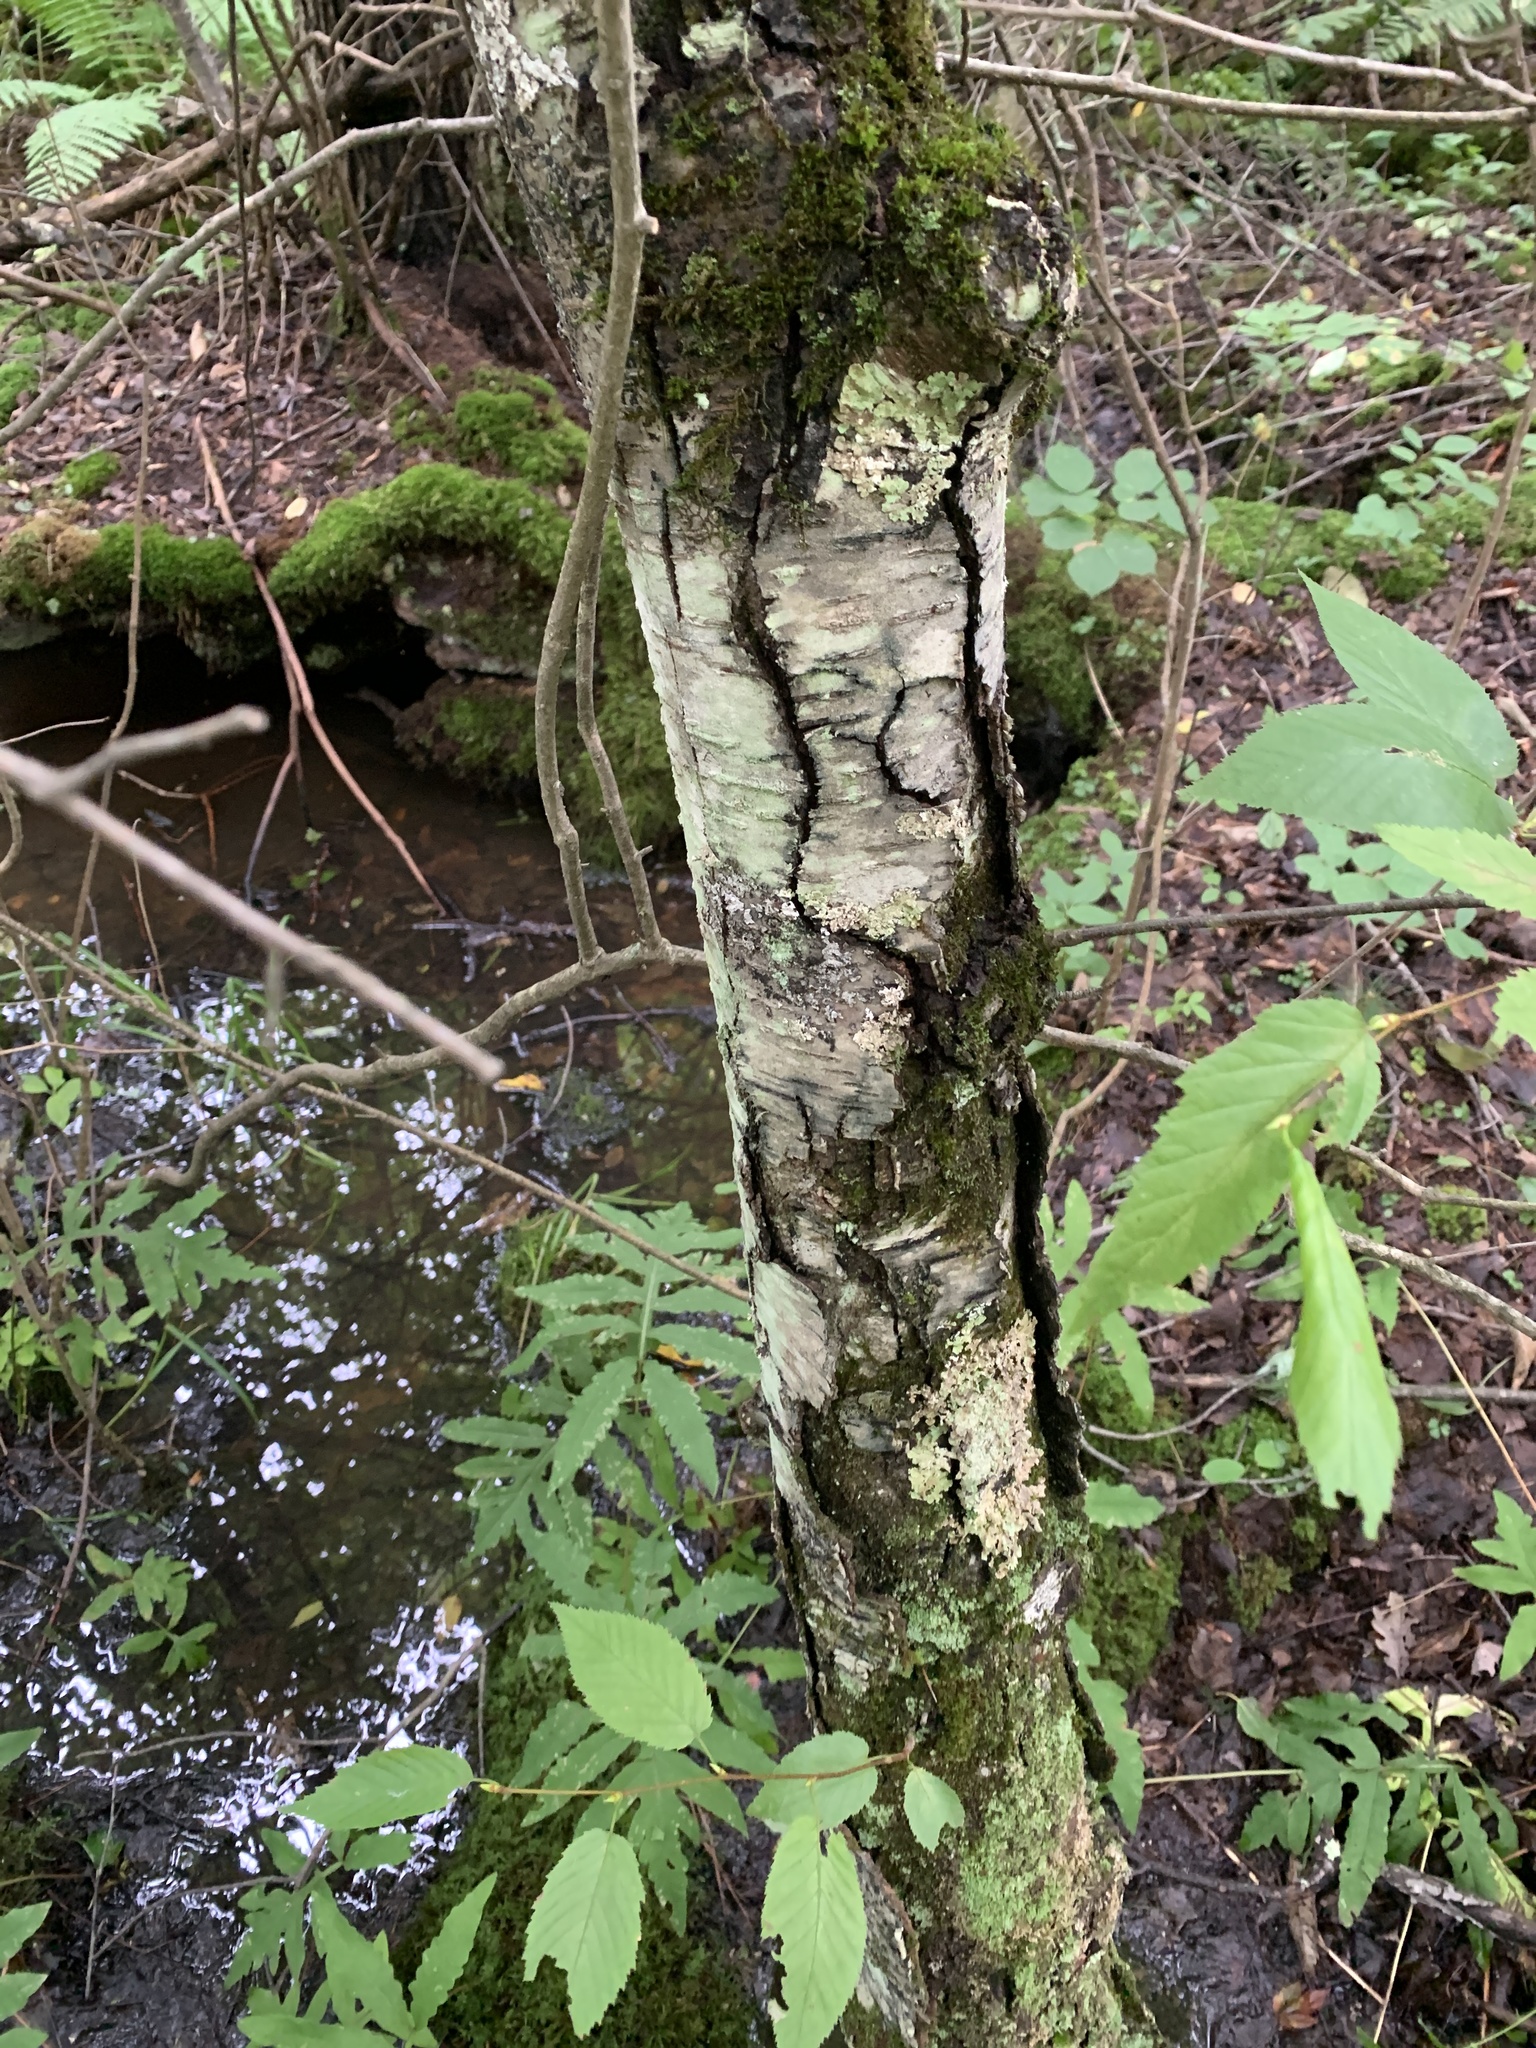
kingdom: Plantae
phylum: Tracheophyta
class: Magnoliopsida
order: Fagales
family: Betulaceae
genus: Betula
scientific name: Betula lenta
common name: Black birch
